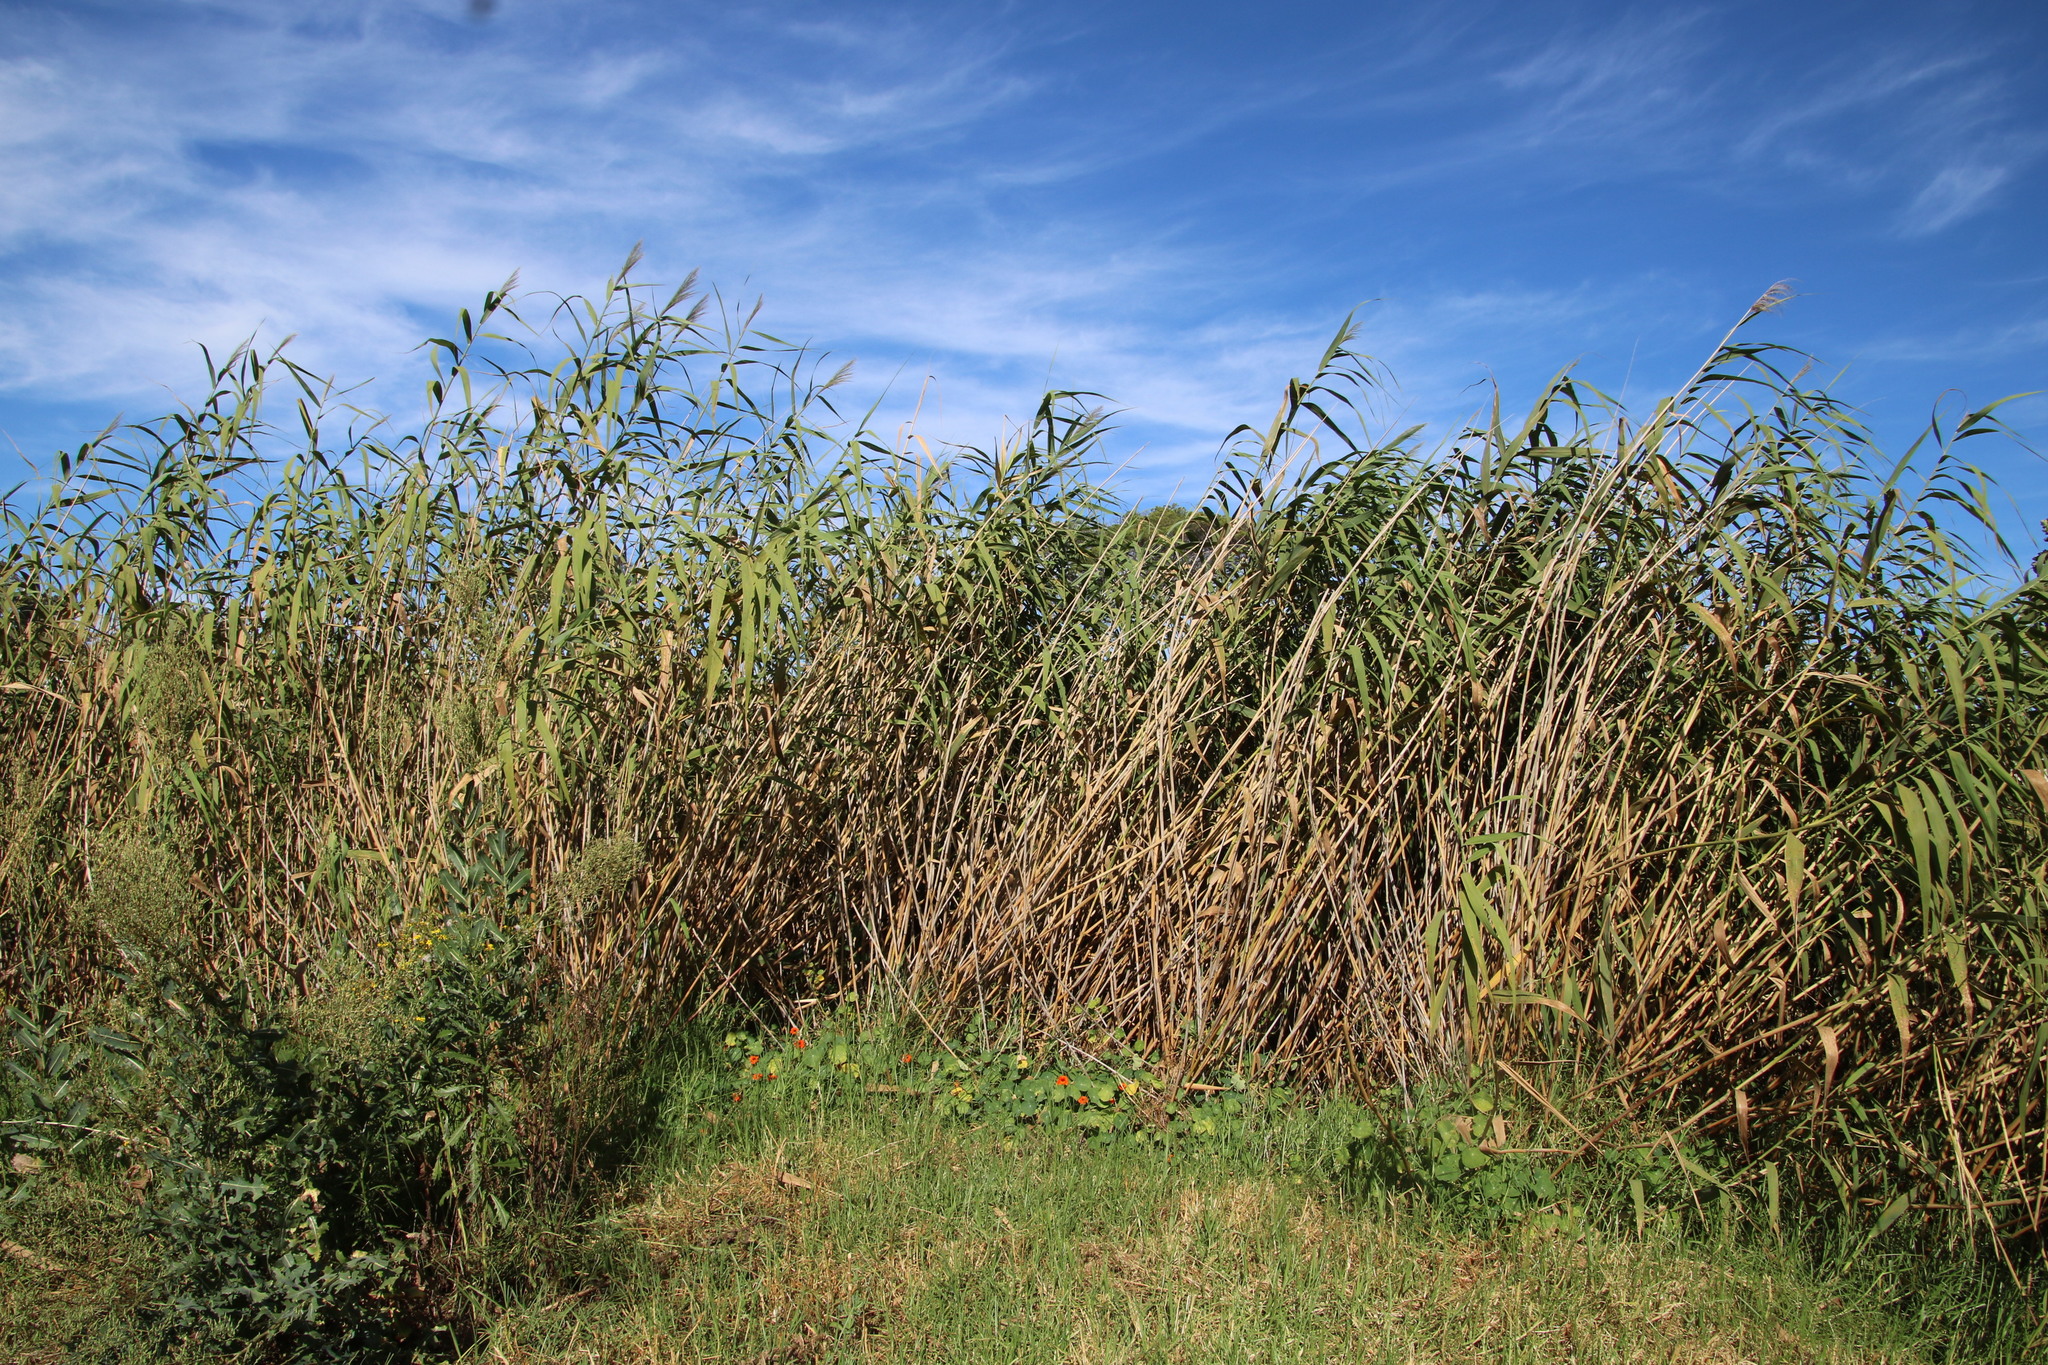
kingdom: Plantae
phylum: Tracheophyta
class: Liliopsida
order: Poales
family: Poaceae
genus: Phragmites
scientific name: Phragmites australis
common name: Common reed
